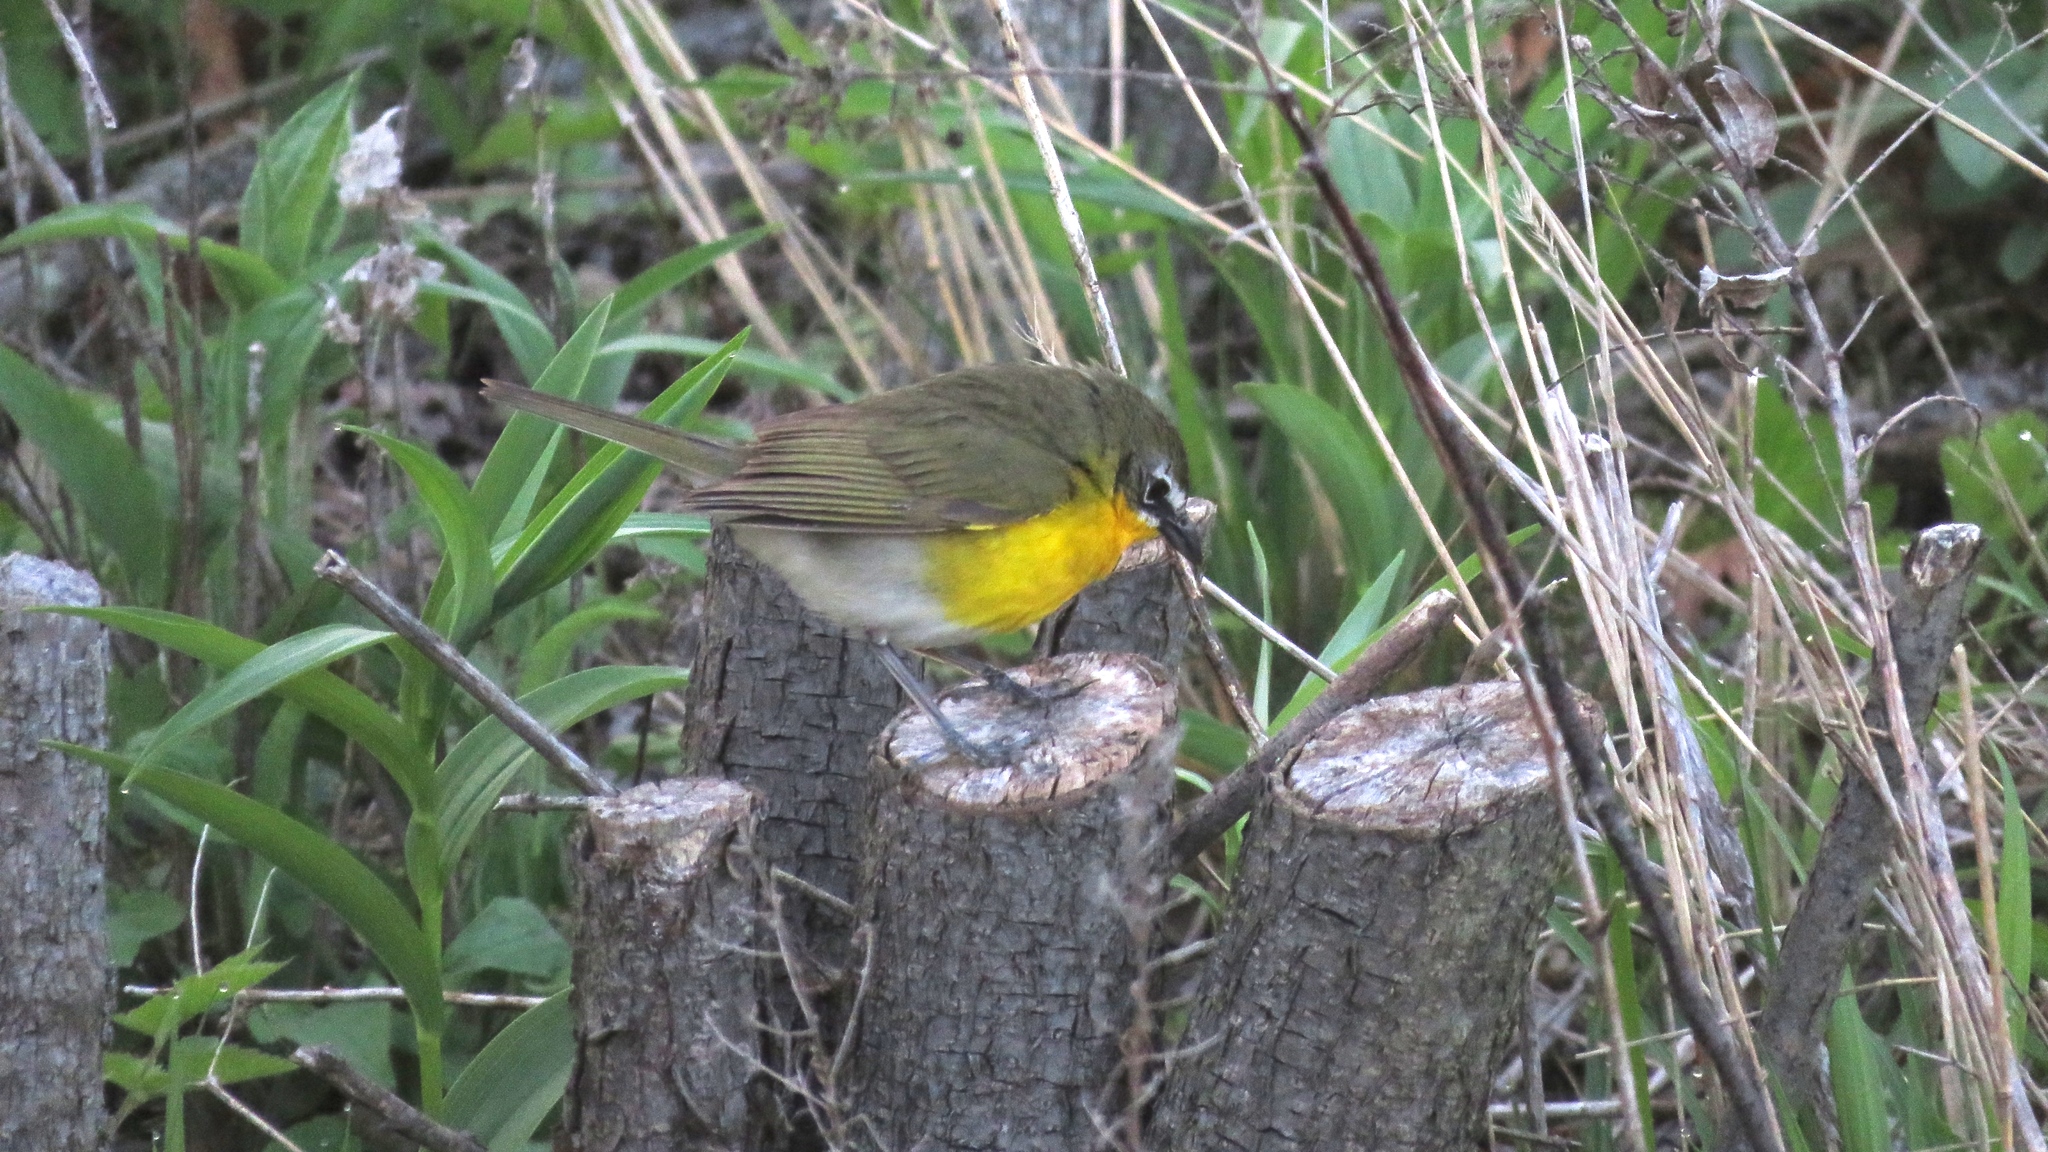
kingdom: Animalia
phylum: Chordata
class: Aves
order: Passeriformes
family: Parulidae
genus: Icteria
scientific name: Icteria virens
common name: Yellow-breasted chat
